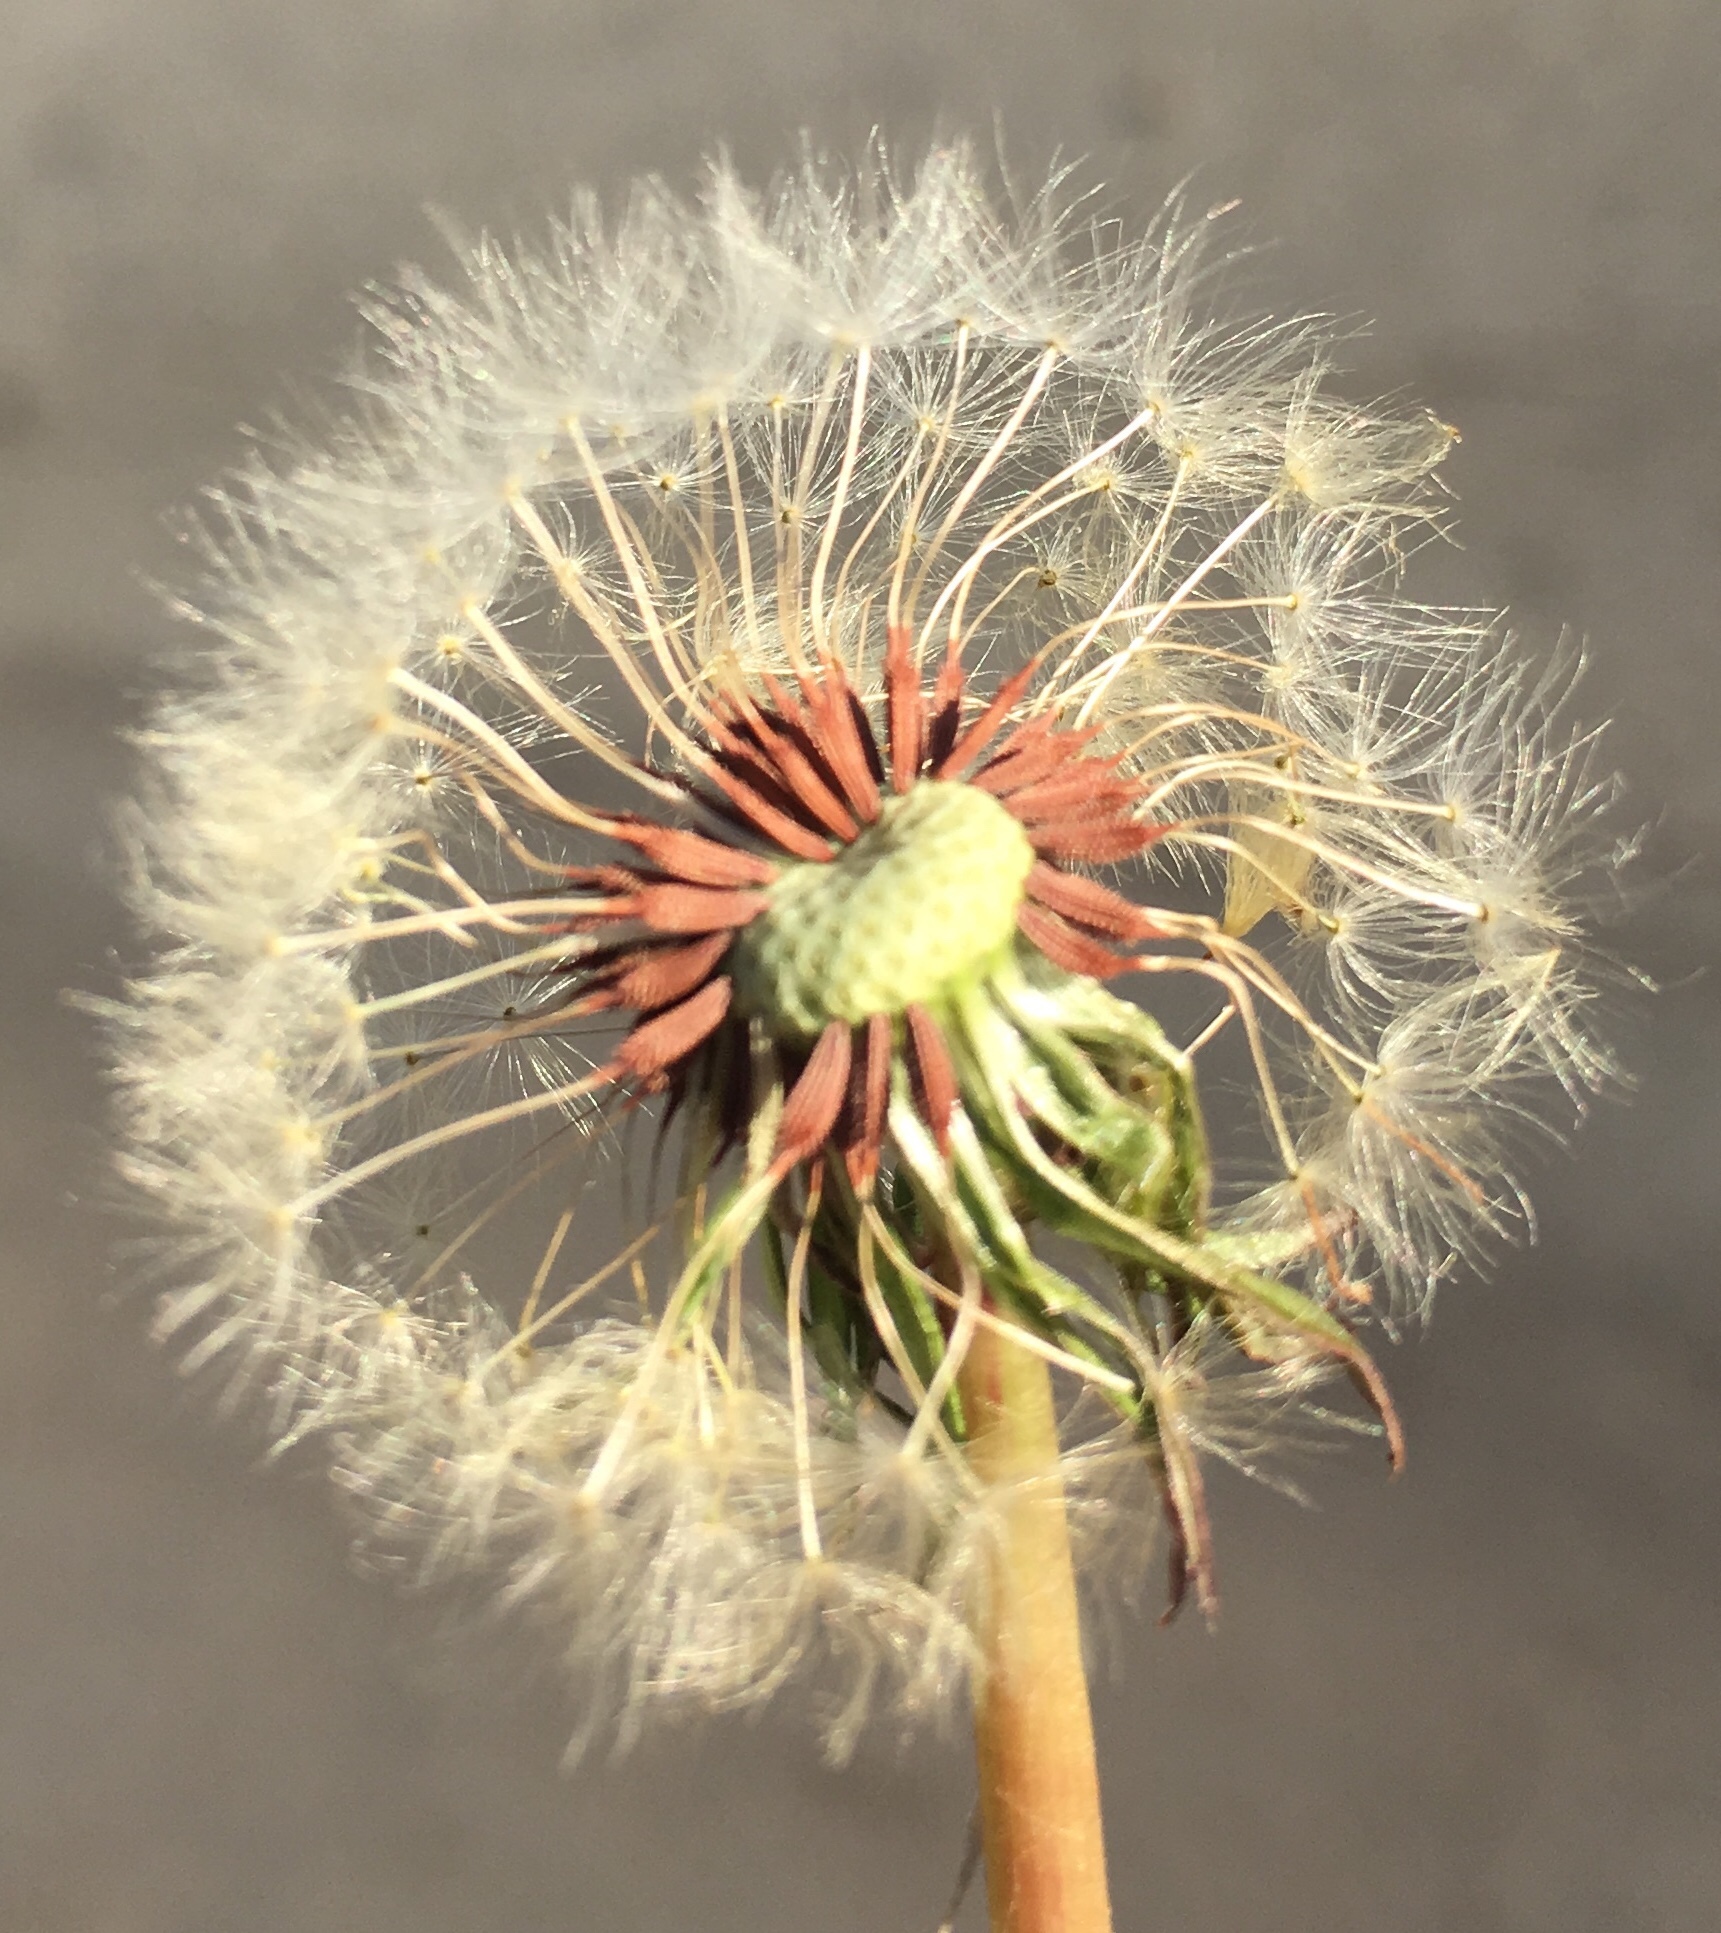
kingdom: Plantae
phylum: Tracheophyta
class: Magnoliopsida
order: Asterales
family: Asteraceae
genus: Taraxacum
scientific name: Taraxacum erythrospermum
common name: Rock dandelion
